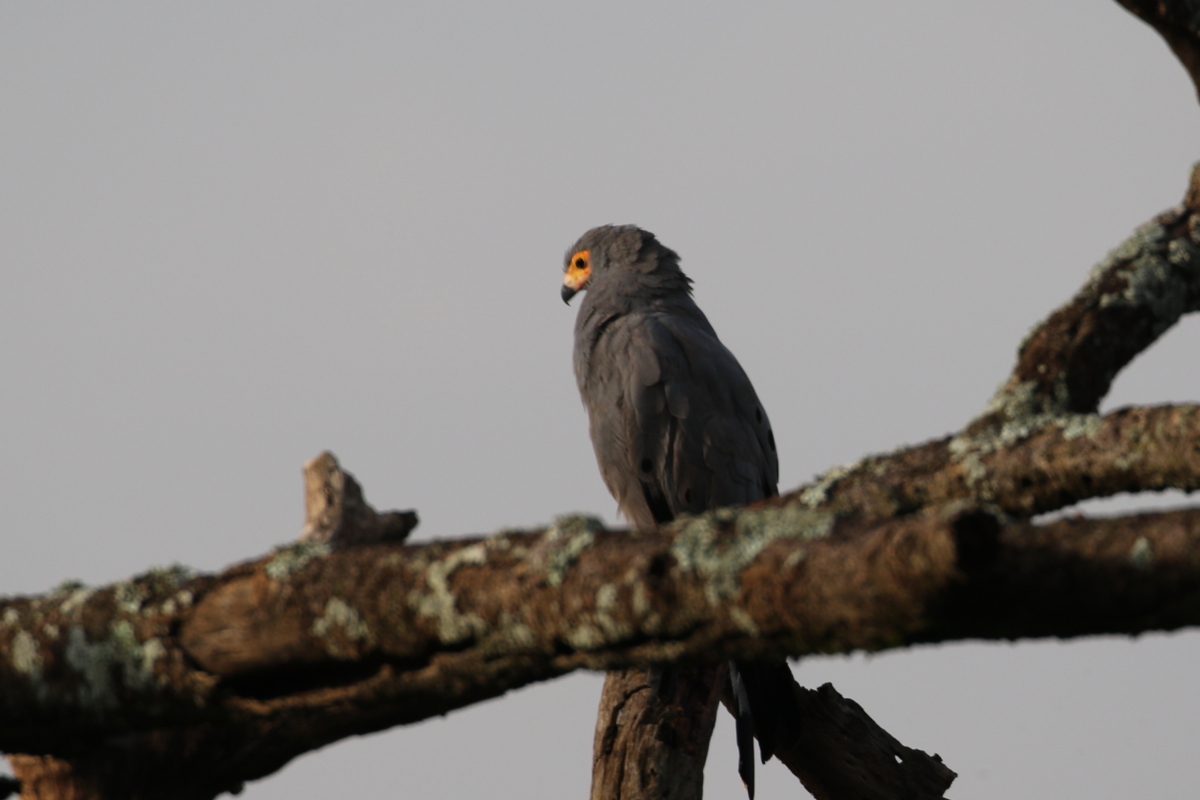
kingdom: Animalia
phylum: Chordata
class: Aves
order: Accipitriformes
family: Accipitridae
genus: Polyboroides
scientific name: Polyboroides typus
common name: African harrier-hawk
